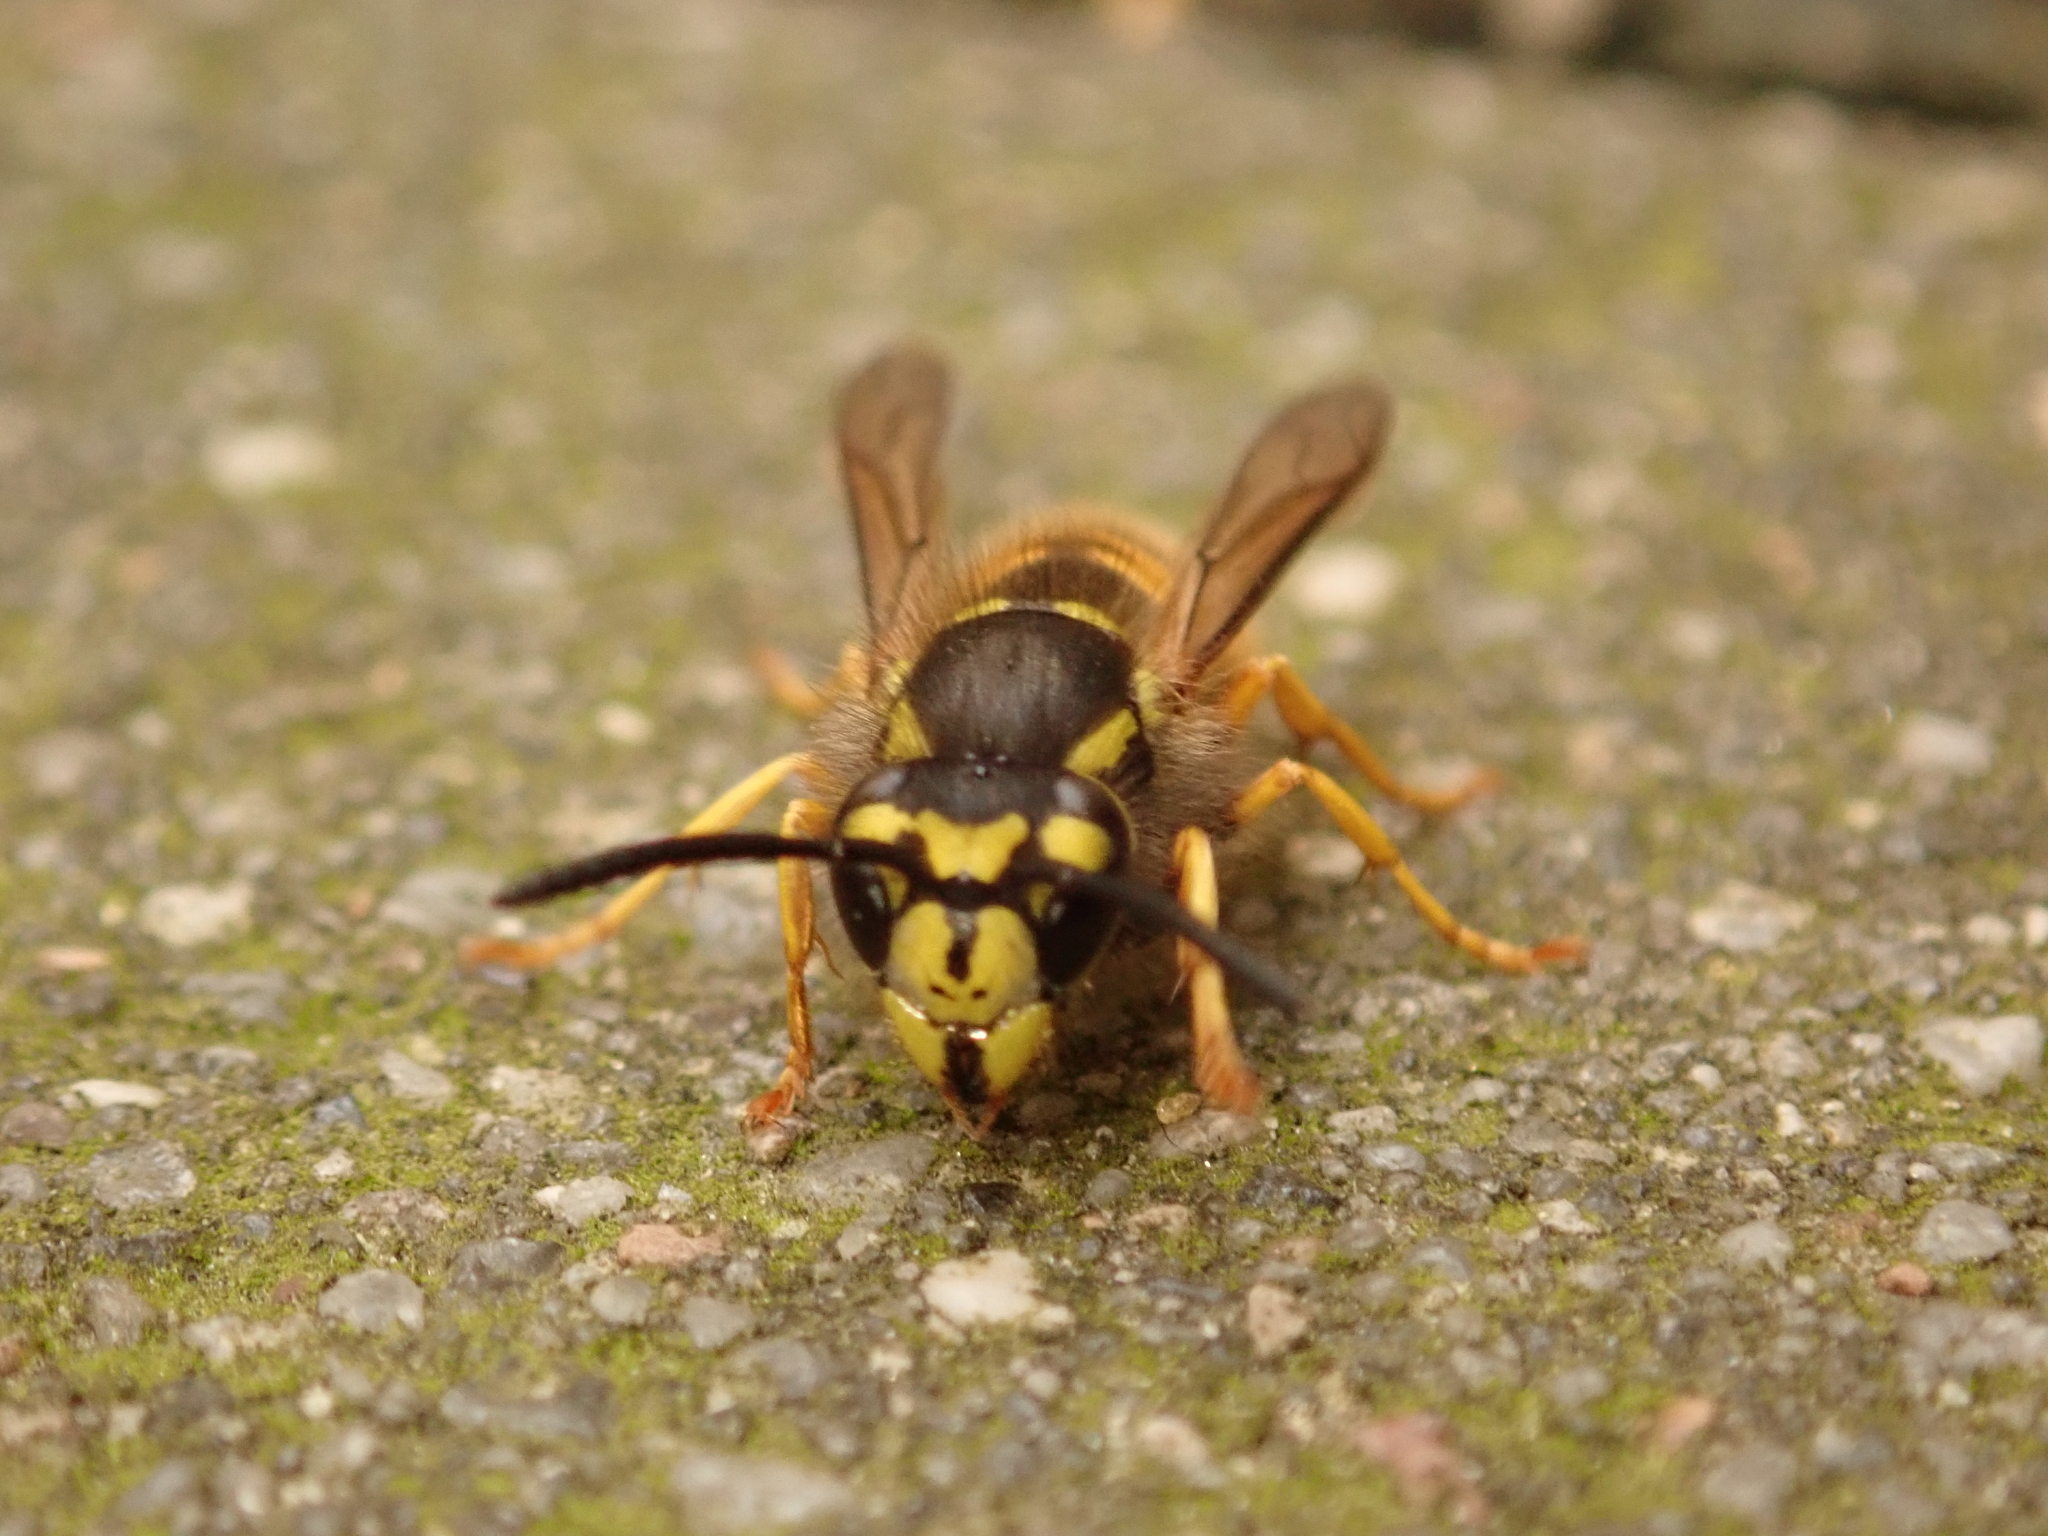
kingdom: Animalia
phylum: Arthropoda
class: Insecta
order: Hymenoptera
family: Vespidae
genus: Vespula
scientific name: Vespula germanica
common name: German wasp
